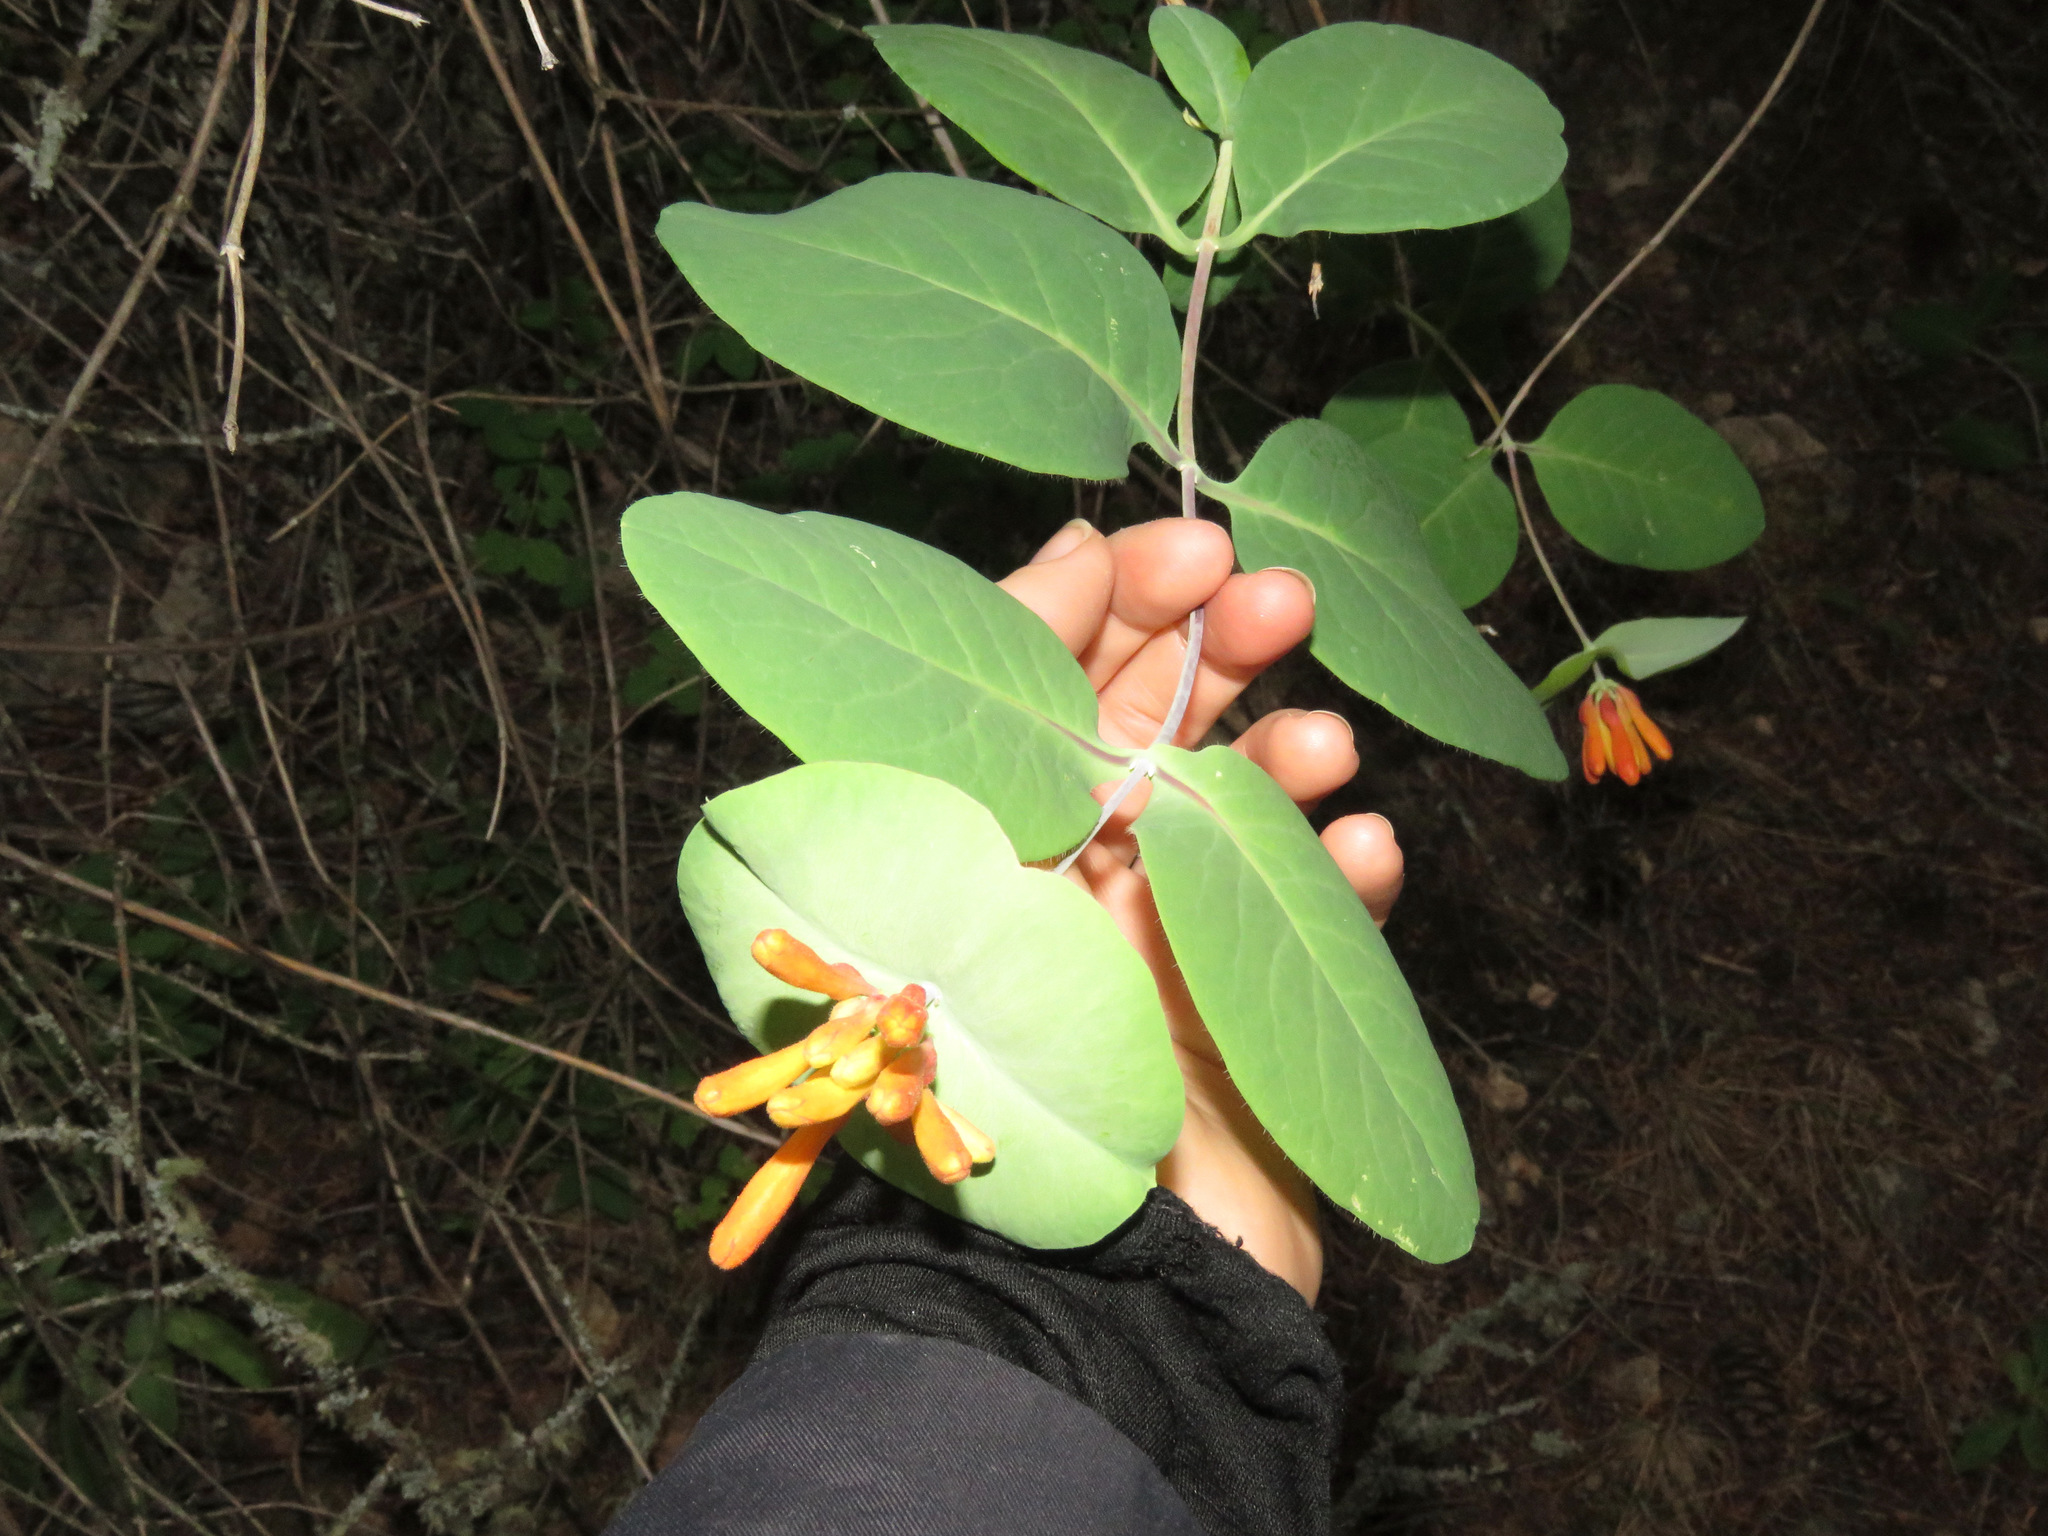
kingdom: Plantae
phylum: Tracheophyta
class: Magnoliopsida
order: Dipsacales
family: Caprifoliaceae
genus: Lonicera
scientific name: Lonicera ciliosa
